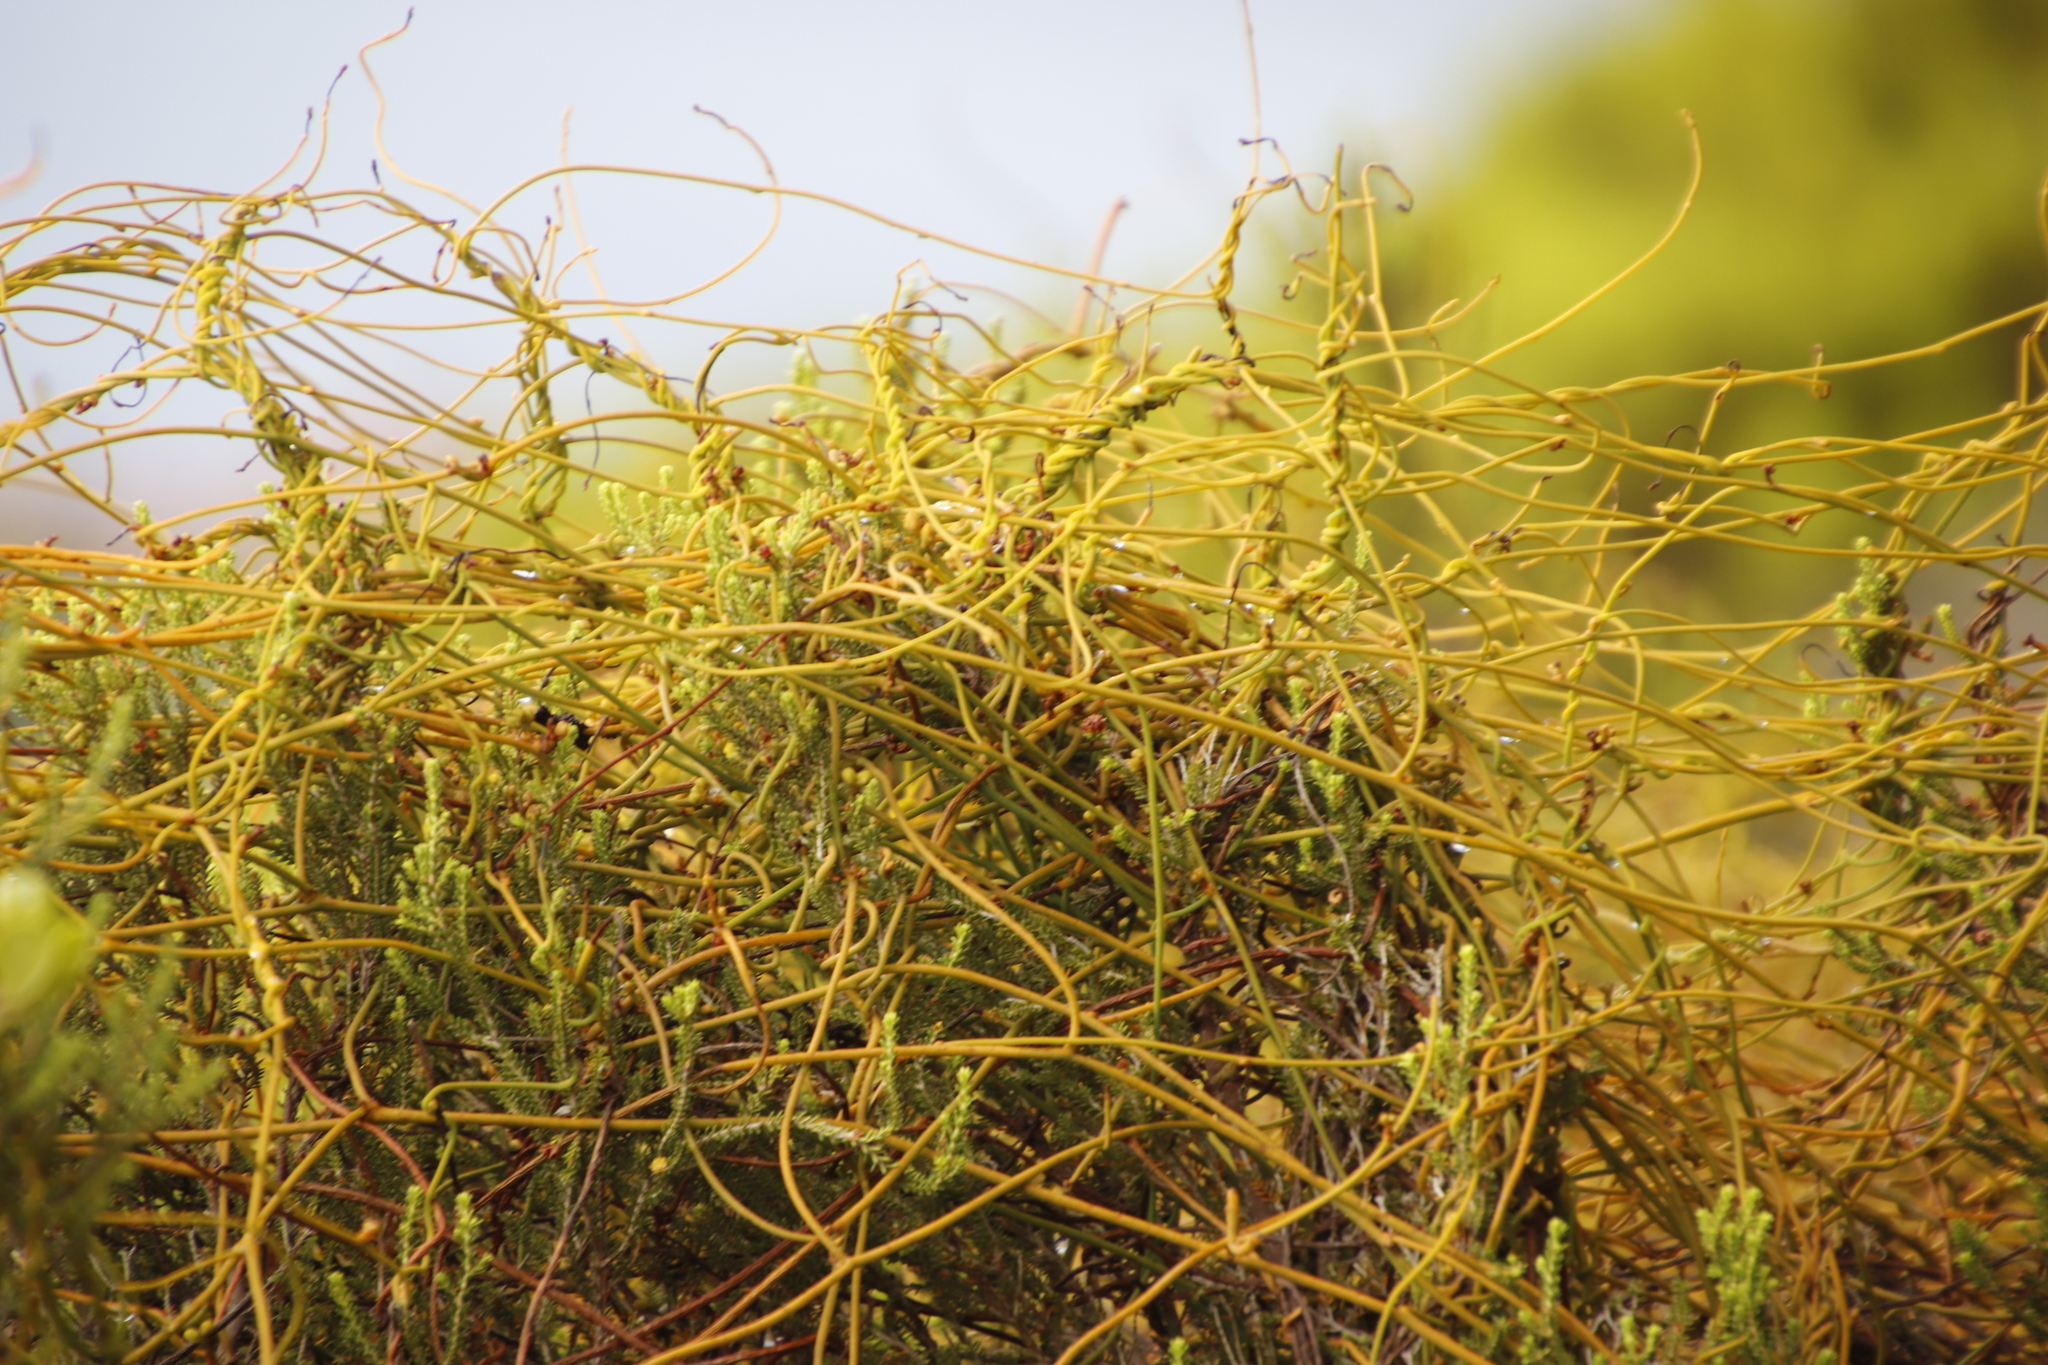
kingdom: Plantae
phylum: Tracheophyta
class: Magnoliopsida
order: Laurales
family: Lauraceae
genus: Cassytha
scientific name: Cassytha ciliolata
